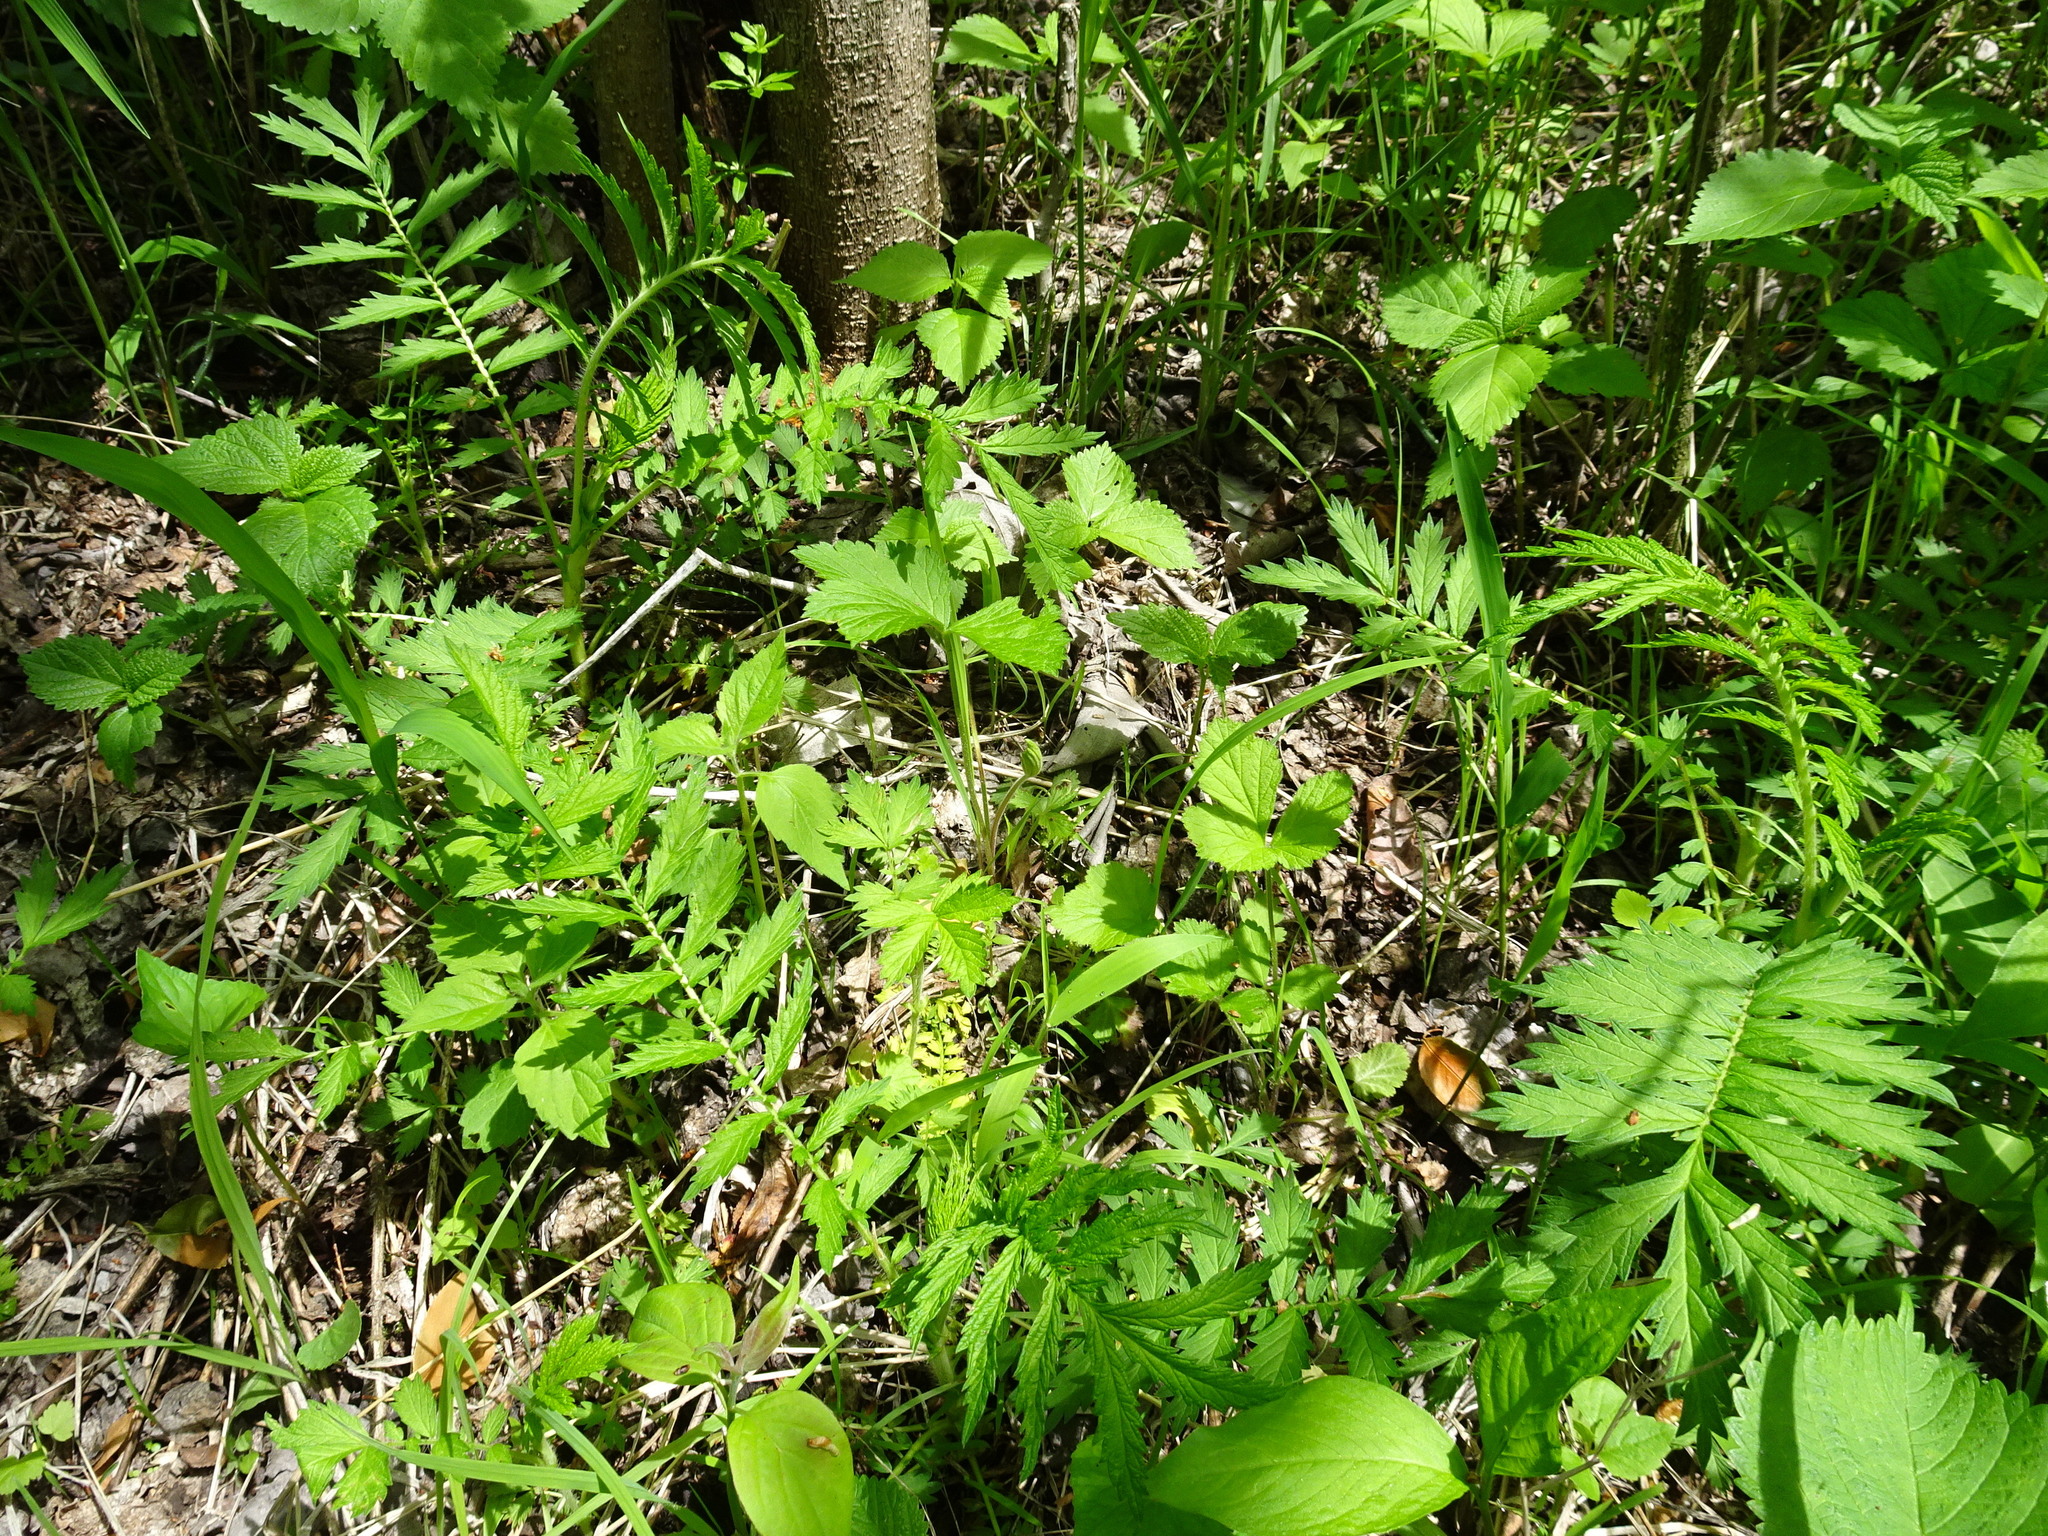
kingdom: Plantae
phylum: Tracheophyta
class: Magnoliopsida
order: Rosales
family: Rosaceae
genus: Agrimonia
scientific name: Agrimonia parviflora
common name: Harvest-lice
